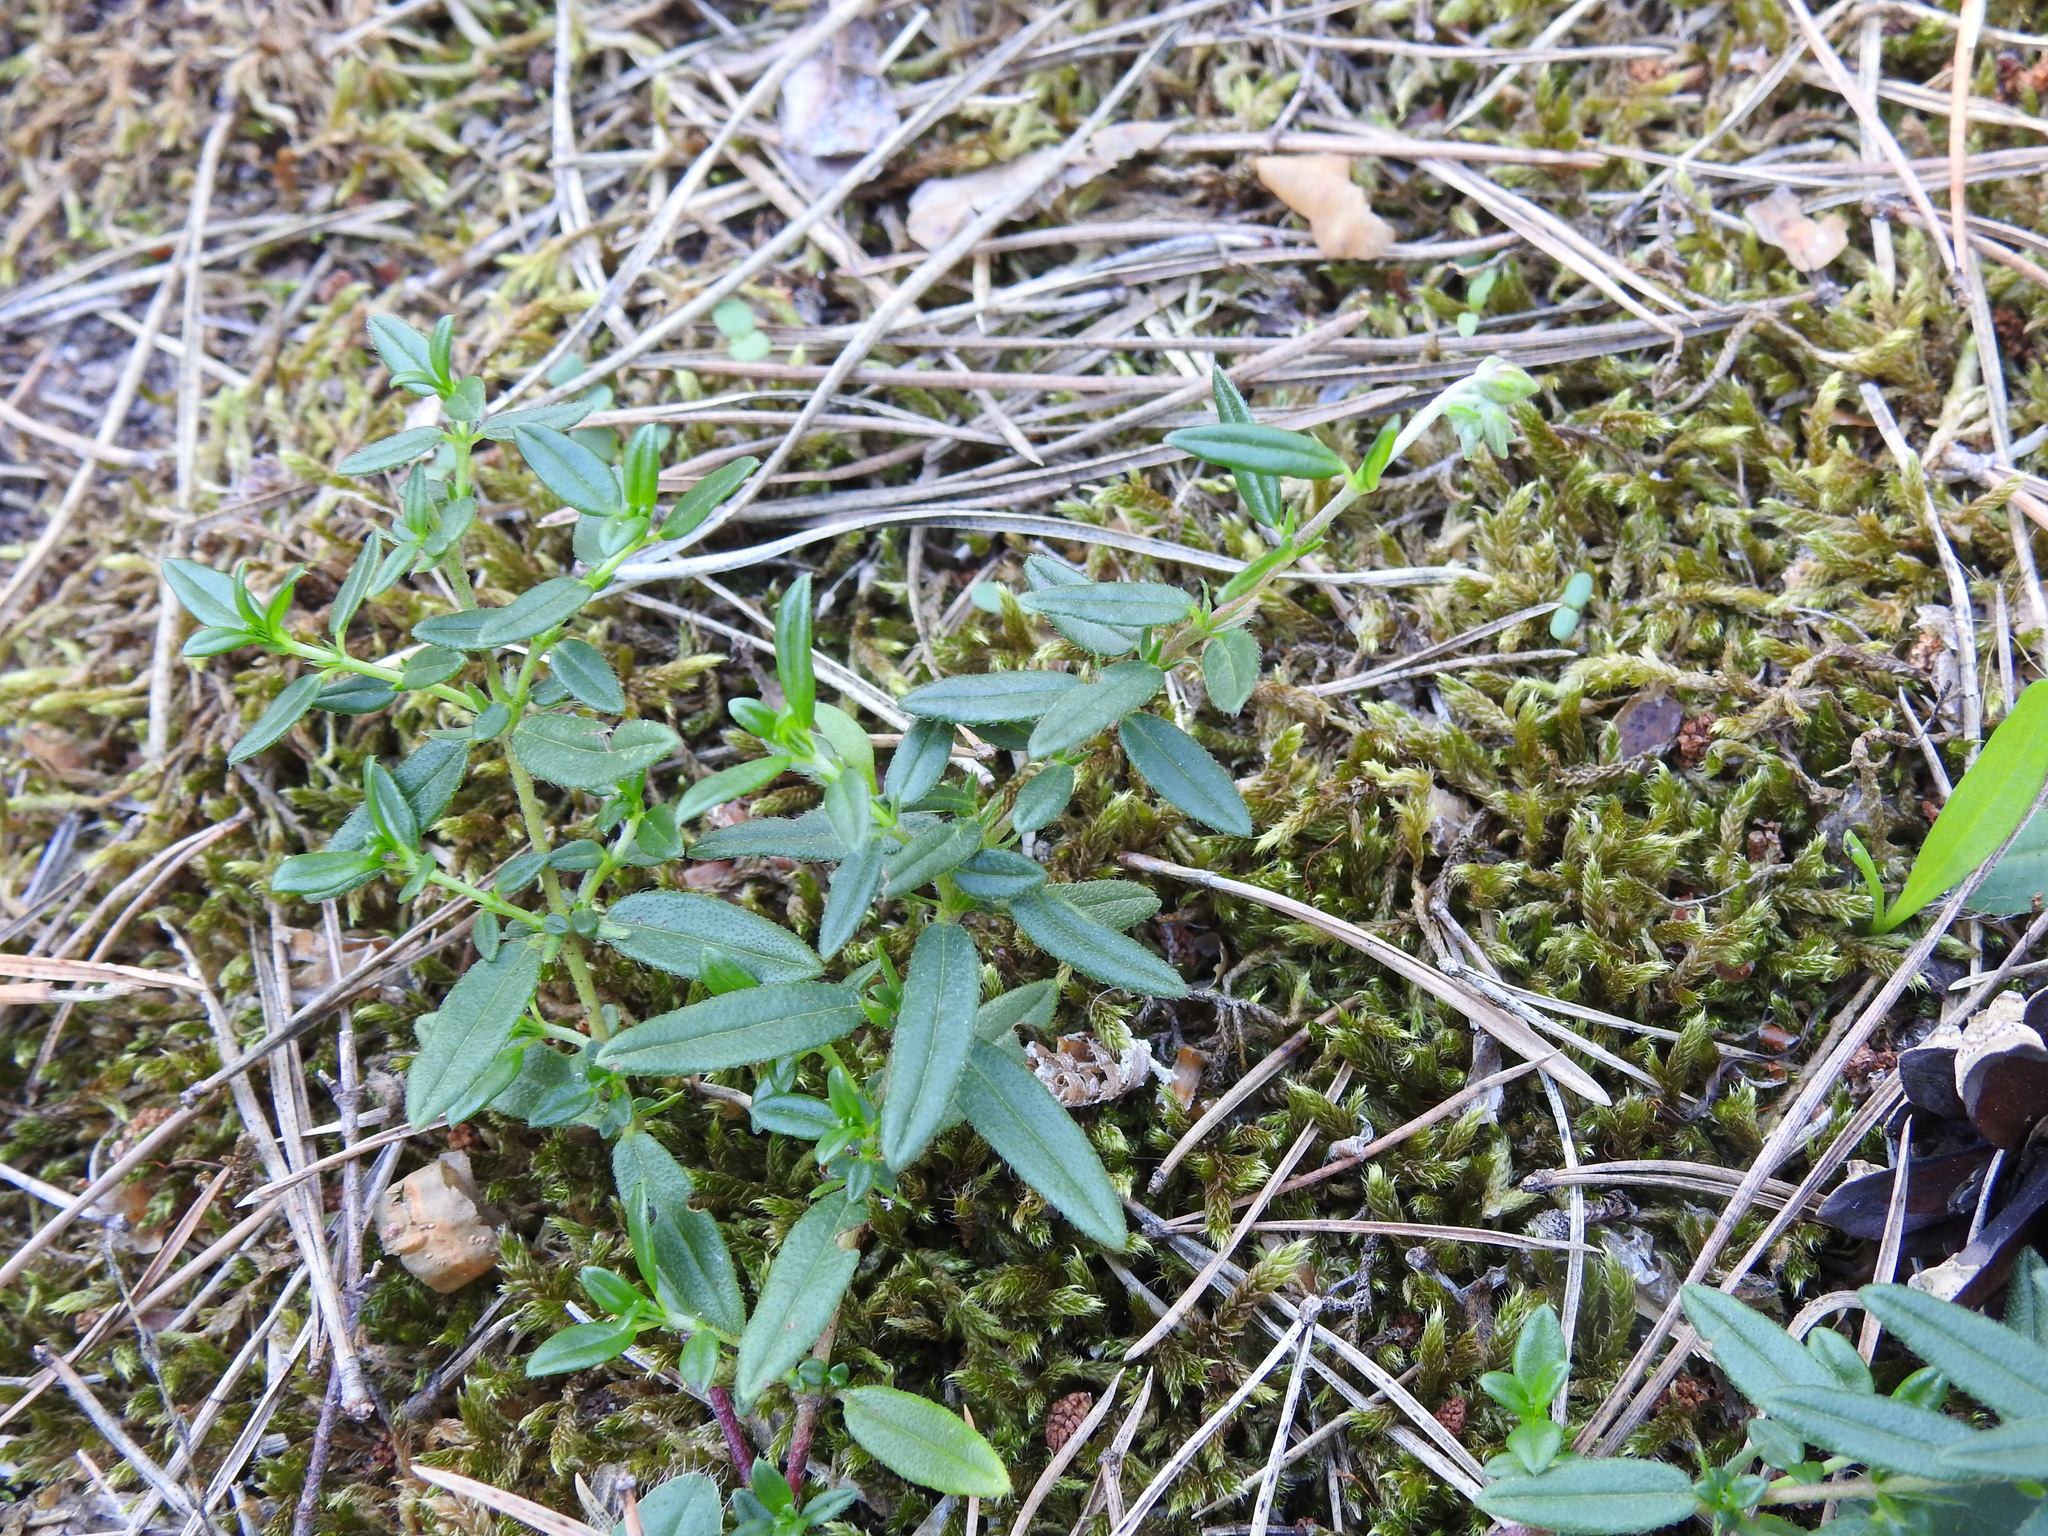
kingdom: Plantae
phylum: Tracheophyta
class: Magnoliopsida
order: Malvales
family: Cistaceae
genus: Helianthemum
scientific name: Helianthemum nummularium
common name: Common rock-rose
